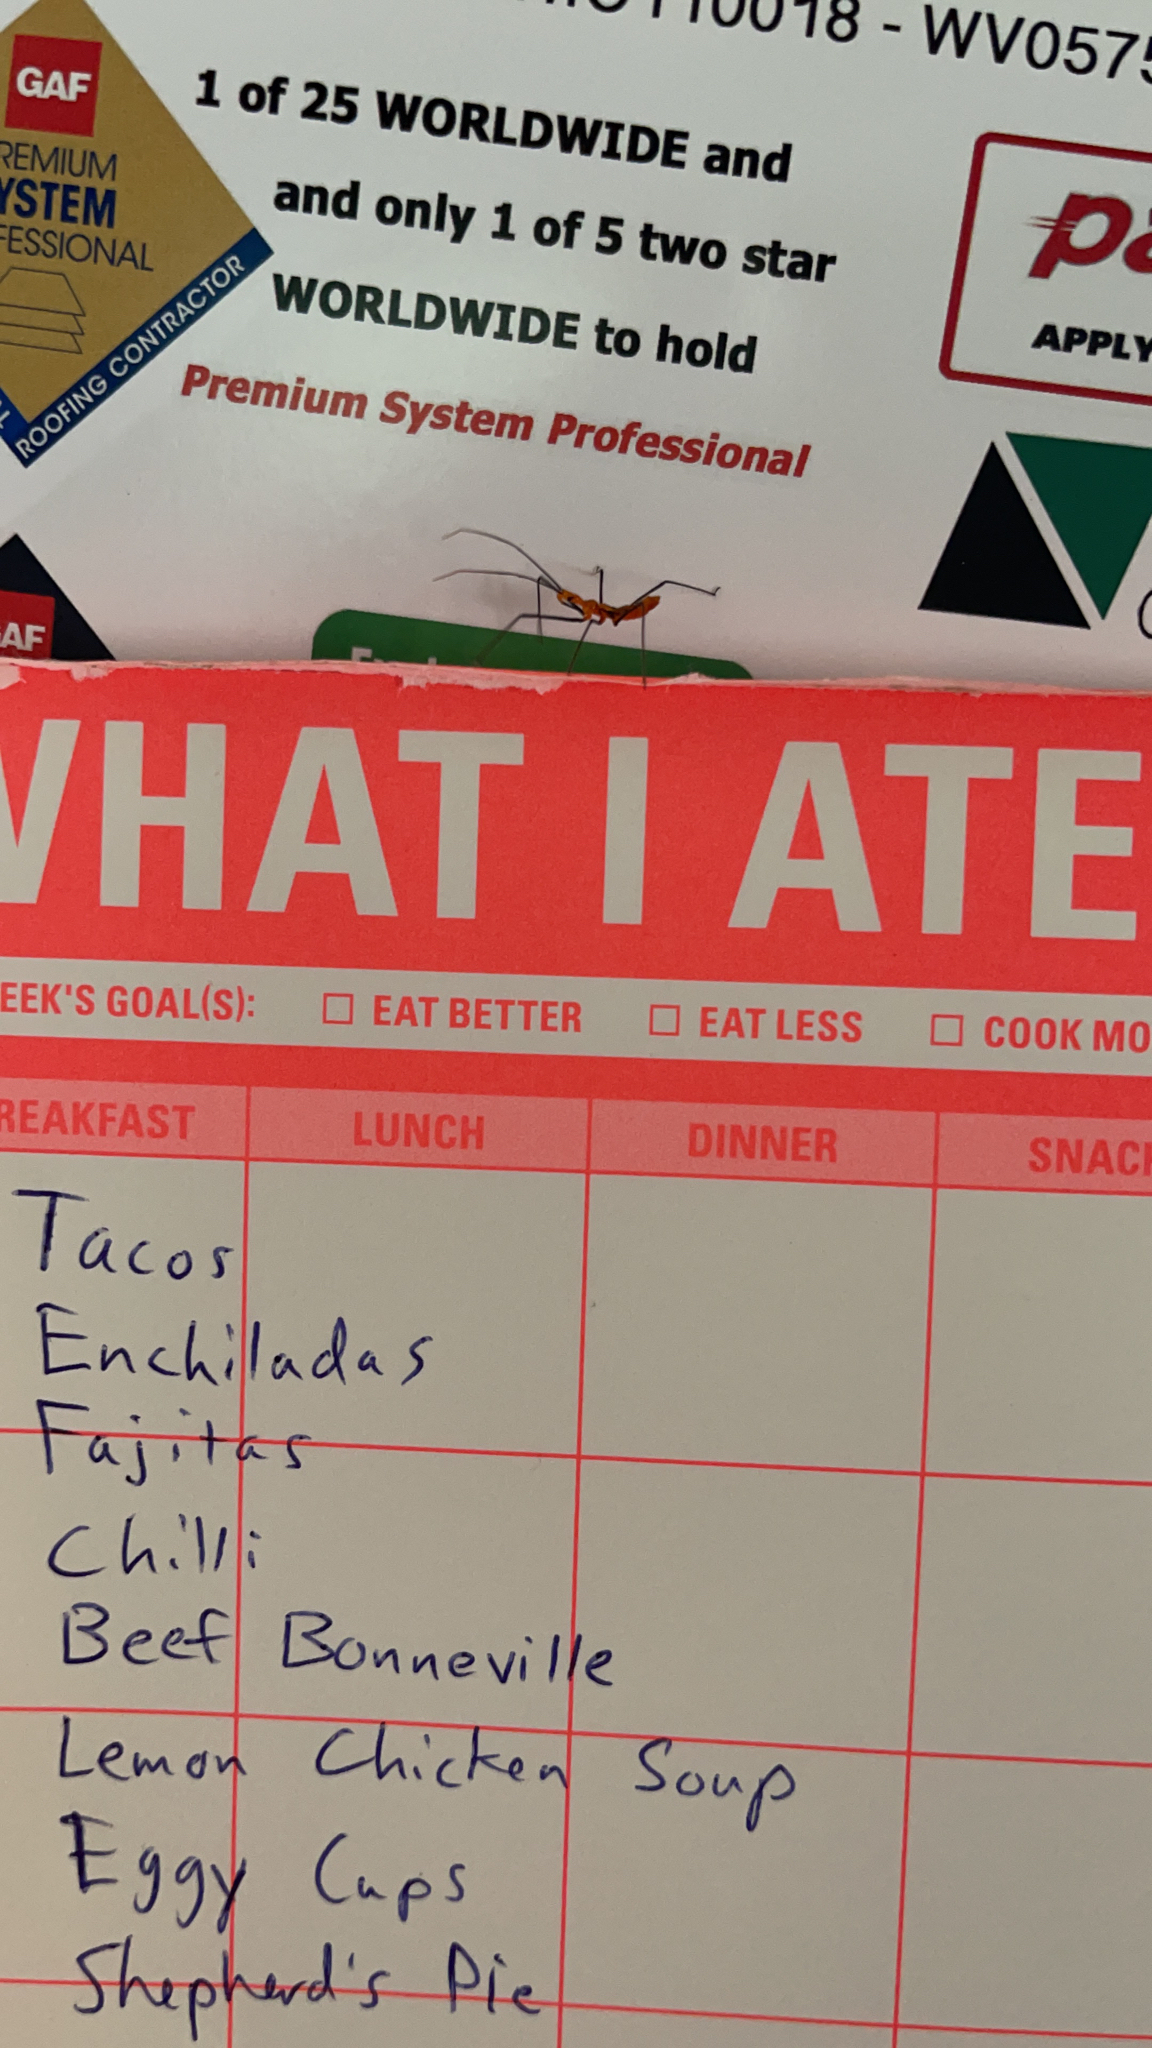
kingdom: Animalia
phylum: Arthropoda
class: Insecta
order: Hemiptera
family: Reduviidae
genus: Zelus
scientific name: Zelus longipes
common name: Milkweed assassin bug
